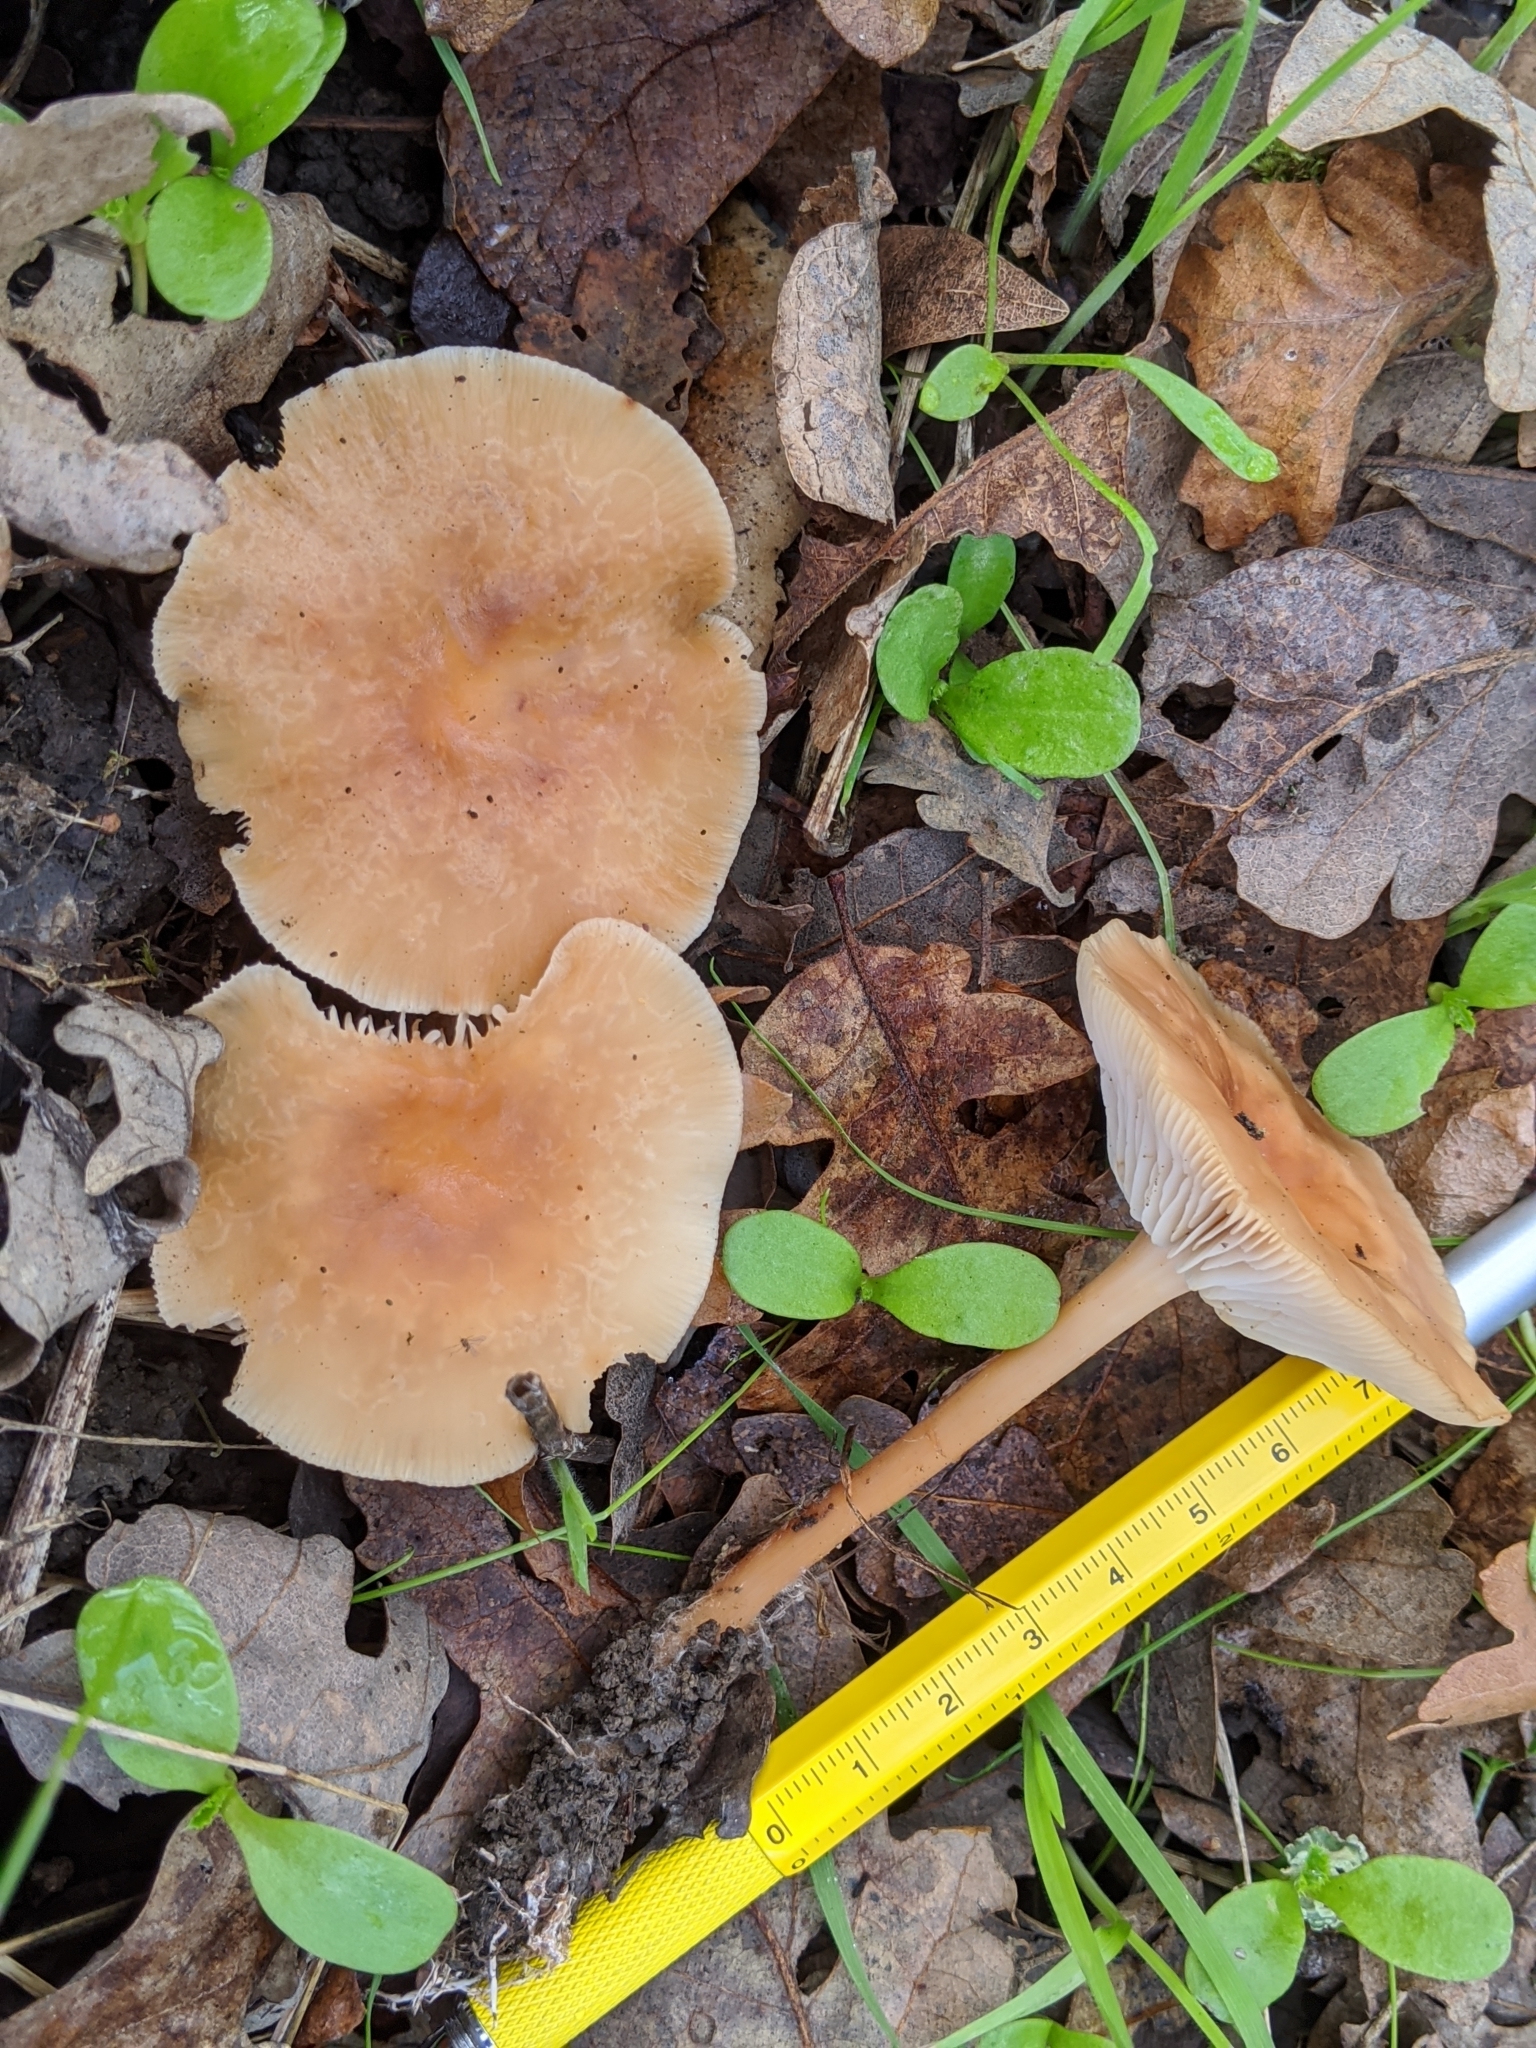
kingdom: Fungi
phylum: Basidiomycota
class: Agaricomycetes
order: Agaricales
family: Omphalotaceae
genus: Gymnopus
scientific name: Gymnopus dryophilus
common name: Penny top
